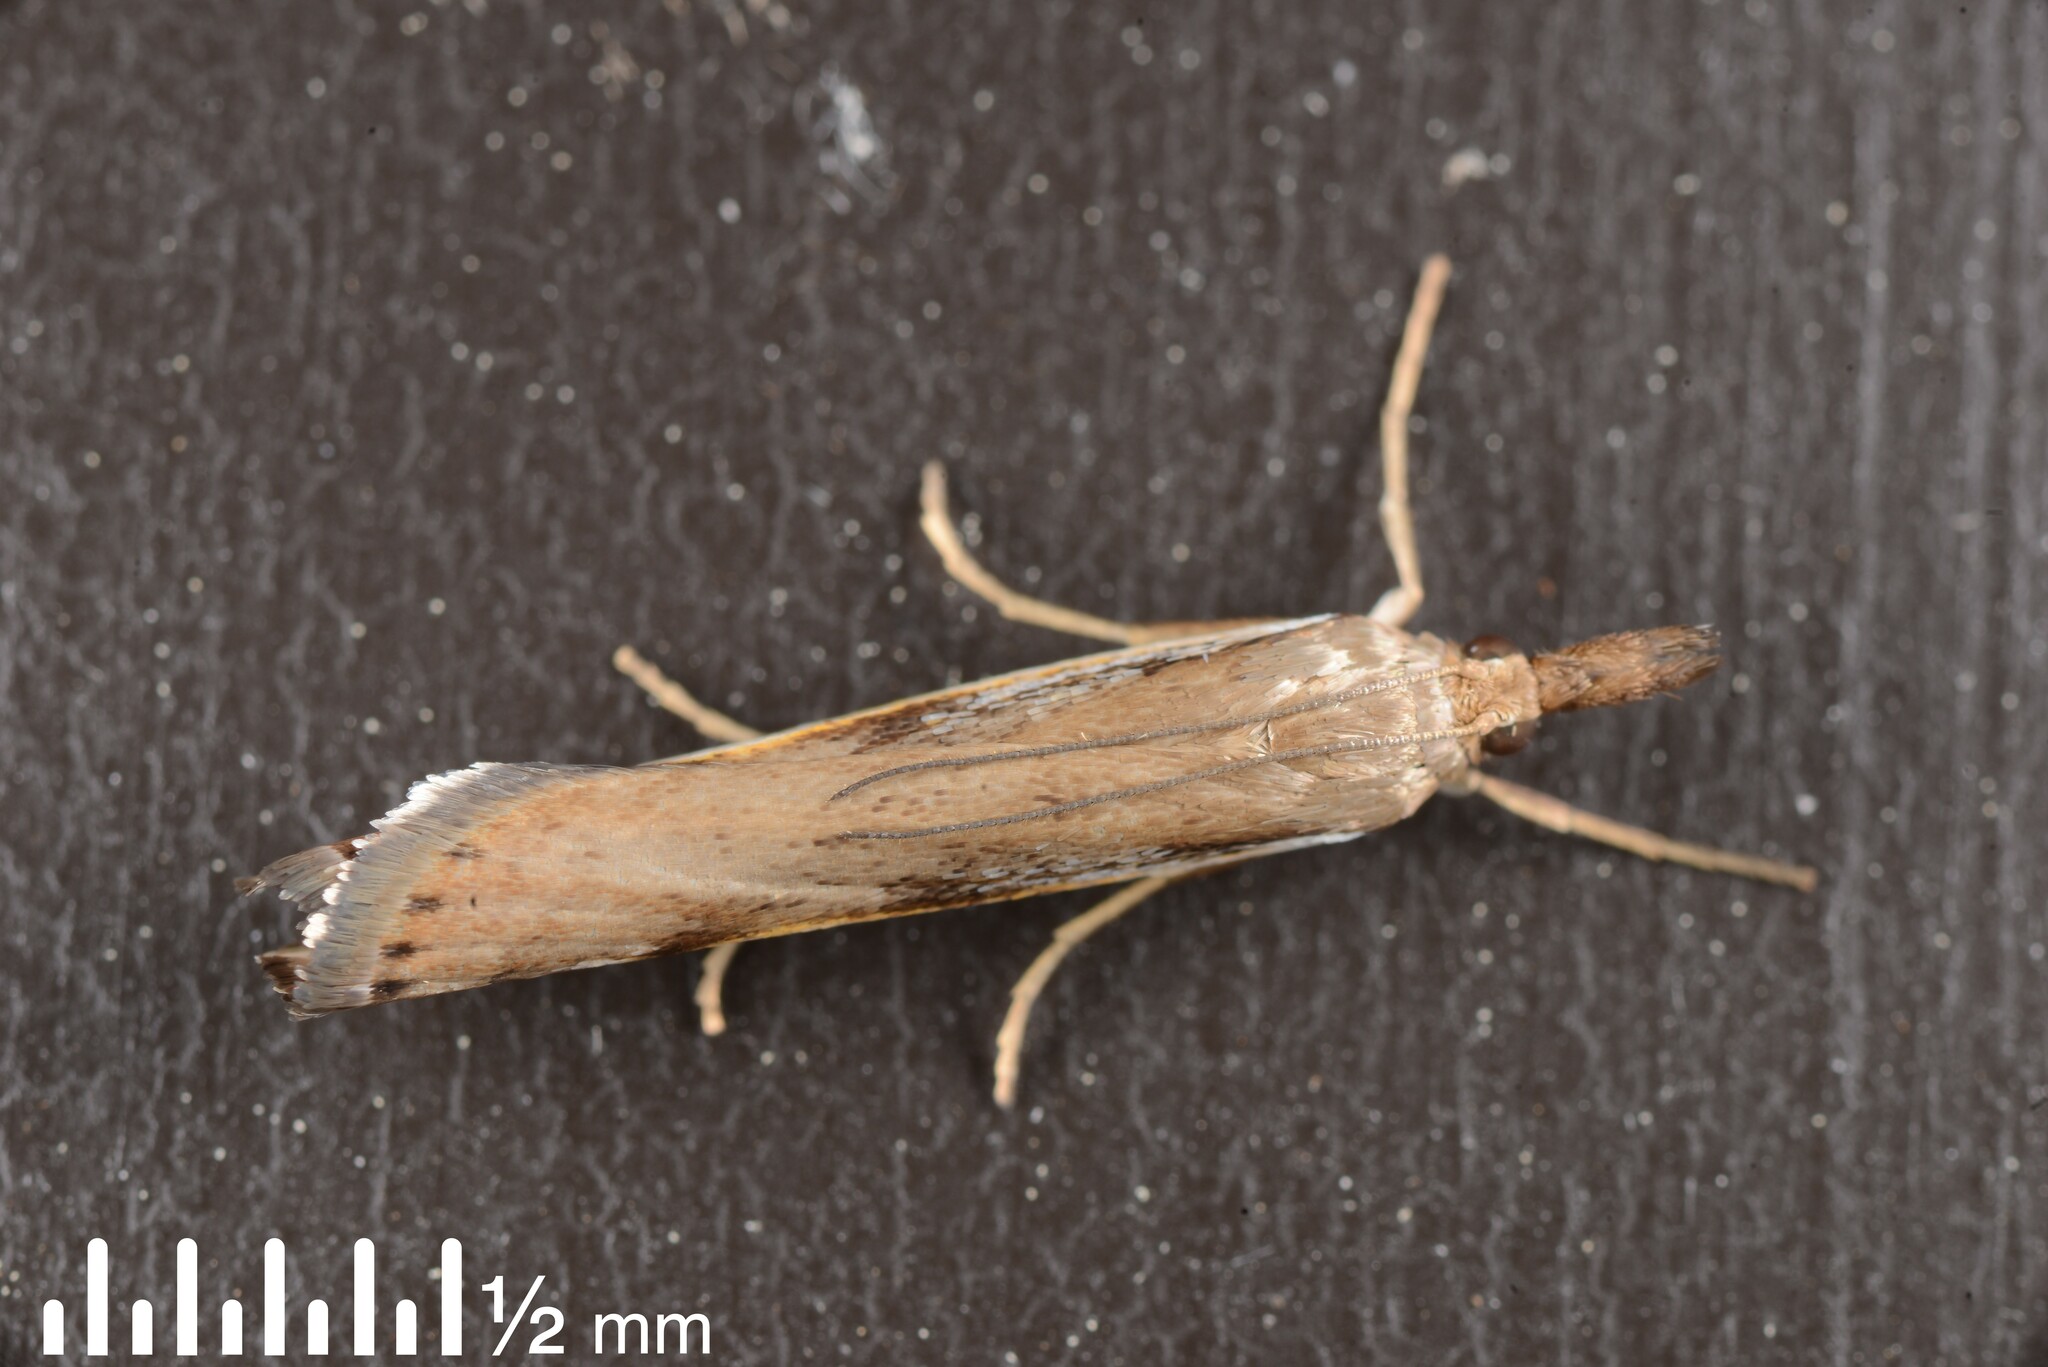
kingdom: Animalia
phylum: Arthropoda
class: Insecta
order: Lepidoptera
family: Crambidae
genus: Orocrambus
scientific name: Orocrambus flexuosellus
